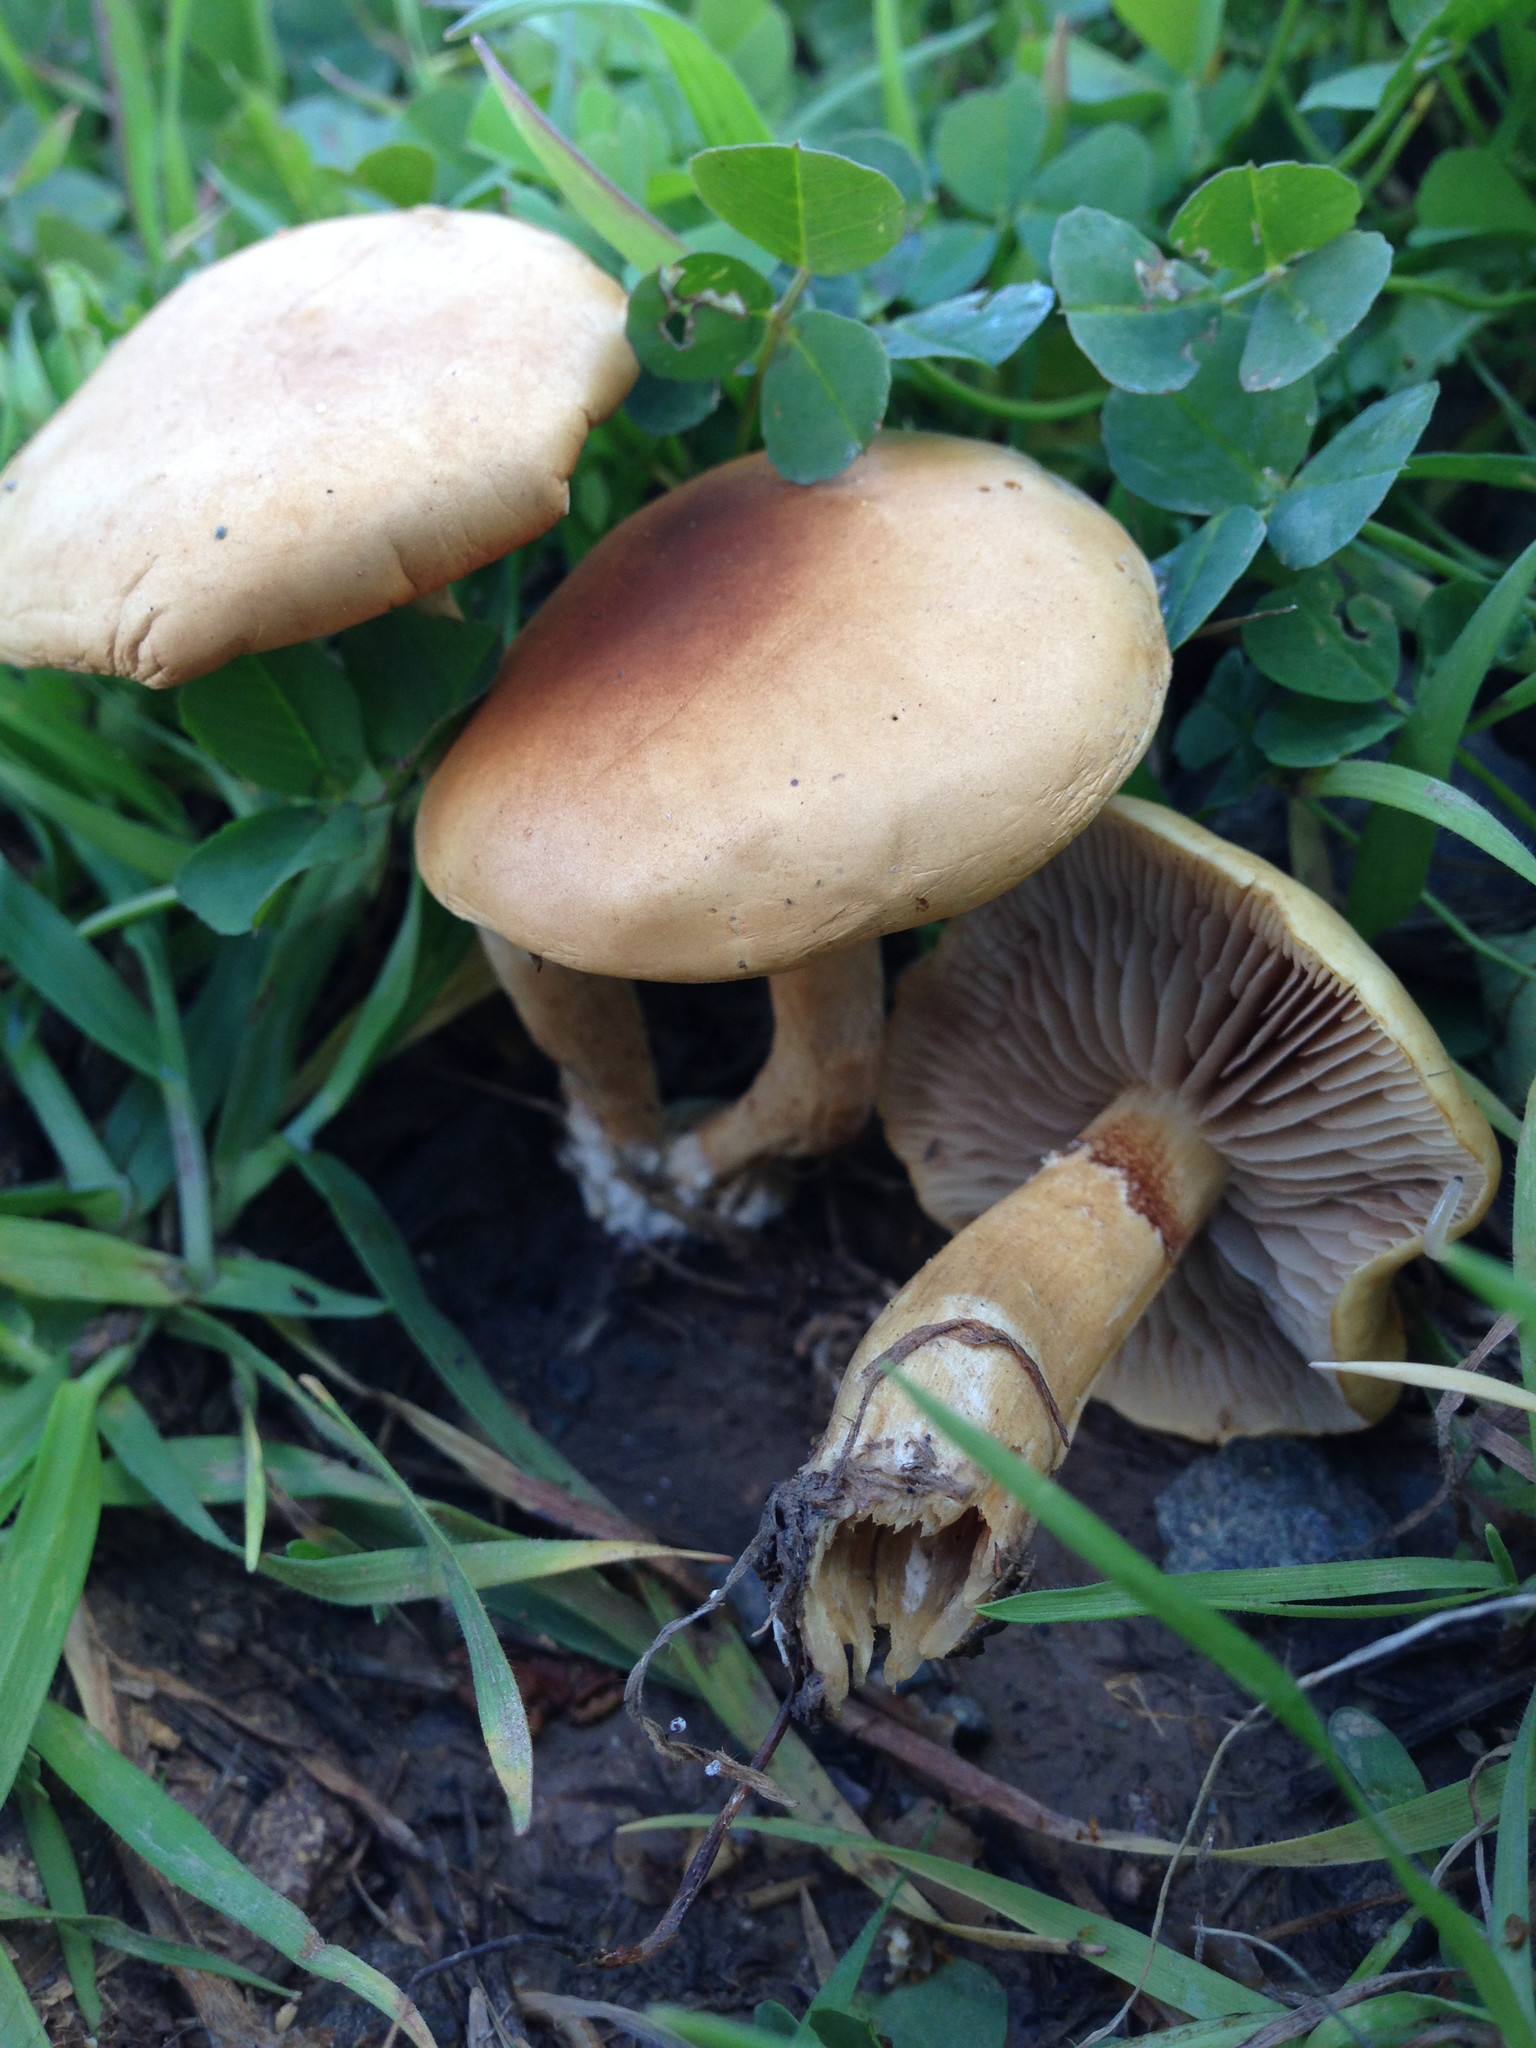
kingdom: Fungi
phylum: Basidiomycota
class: Agaricomycetes
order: Agaricales
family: Strophariaceae
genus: Agrocybe
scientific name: Agrocybe praecox
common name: Spring fieldcap
